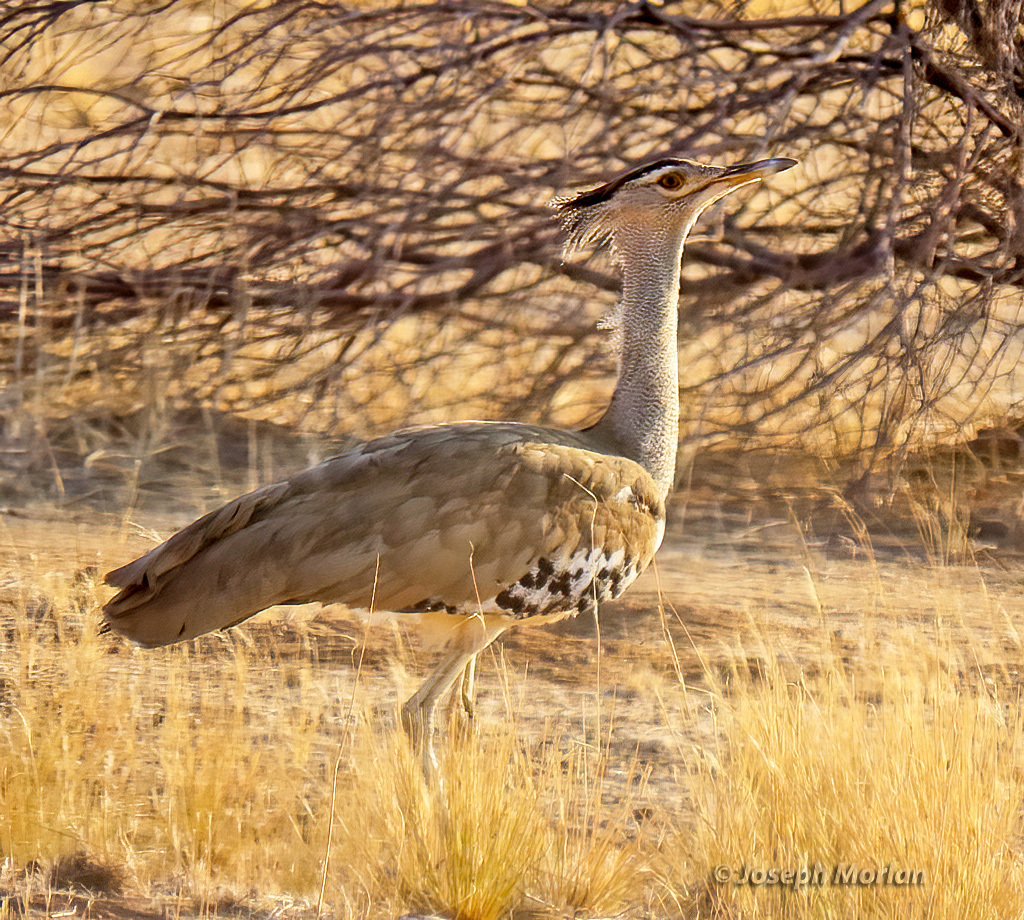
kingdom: Animalia
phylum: Chordata
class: Aves
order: Otidiformes
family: Otididae
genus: Ardeotis
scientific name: Ardeotis kori
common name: Kori bustard
